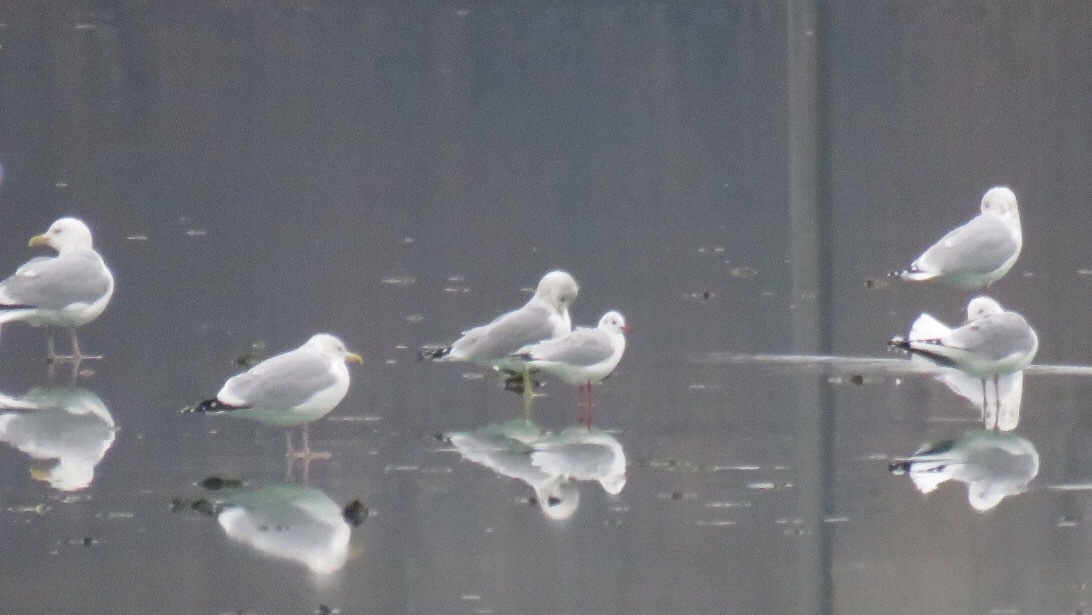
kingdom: Animalia
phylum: Chordata
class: Aves
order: Charadriiformes
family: Laridae
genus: Chroicocephalus
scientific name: Chroicocephalus ridibundus
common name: Black-headed gull
